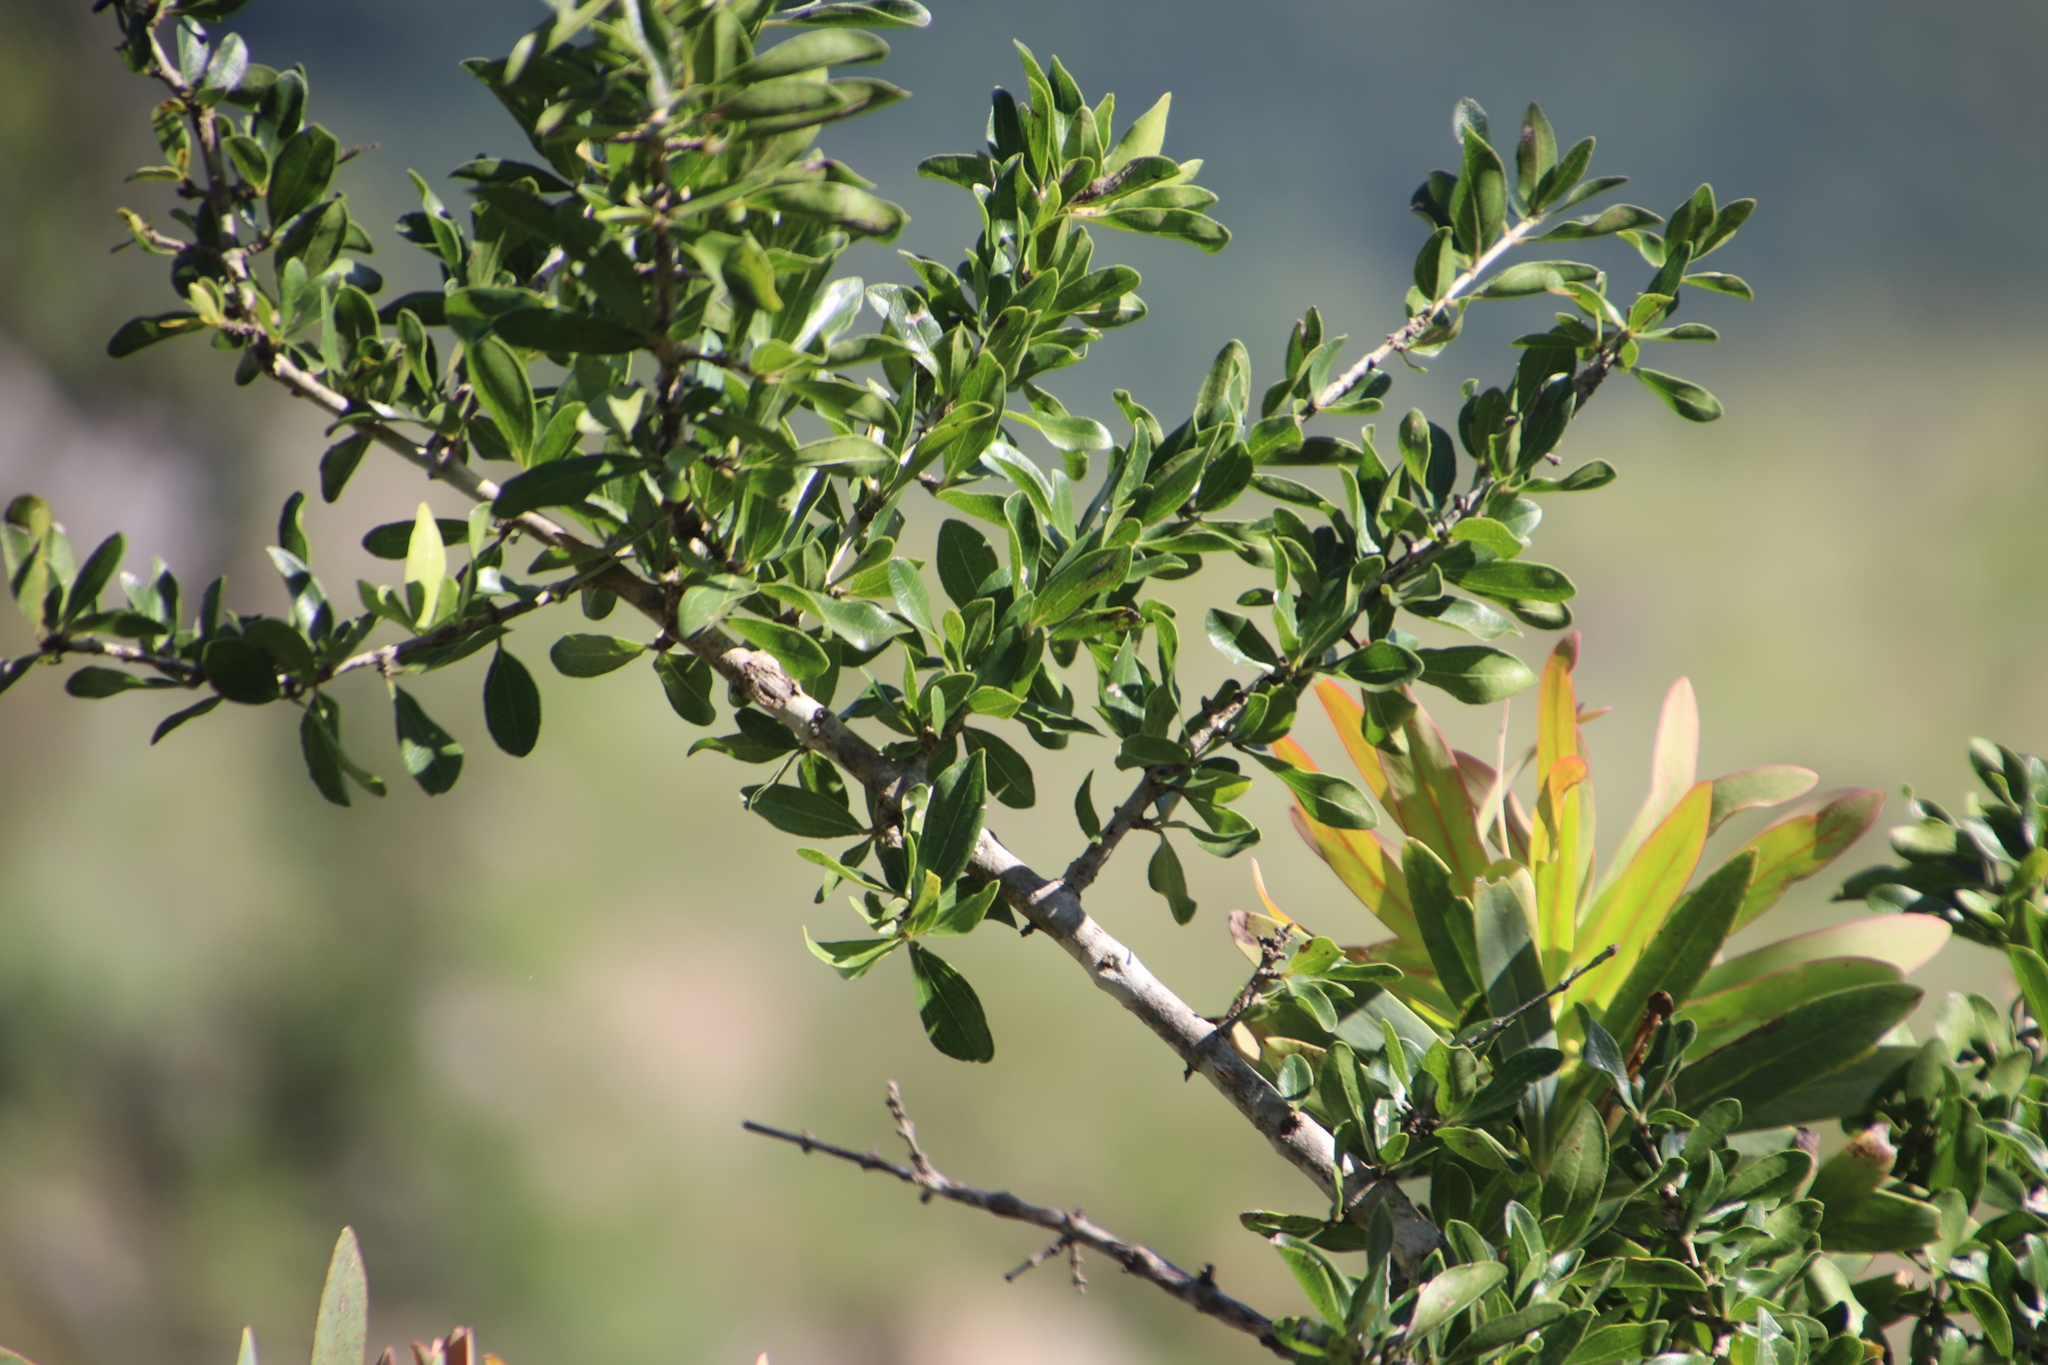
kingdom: Plantae
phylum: Tracheophyta
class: Magnoliopsida
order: Santalales
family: Ximeniaceae
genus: Ximenia
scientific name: Ximenia caffra
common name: Large sourplum
